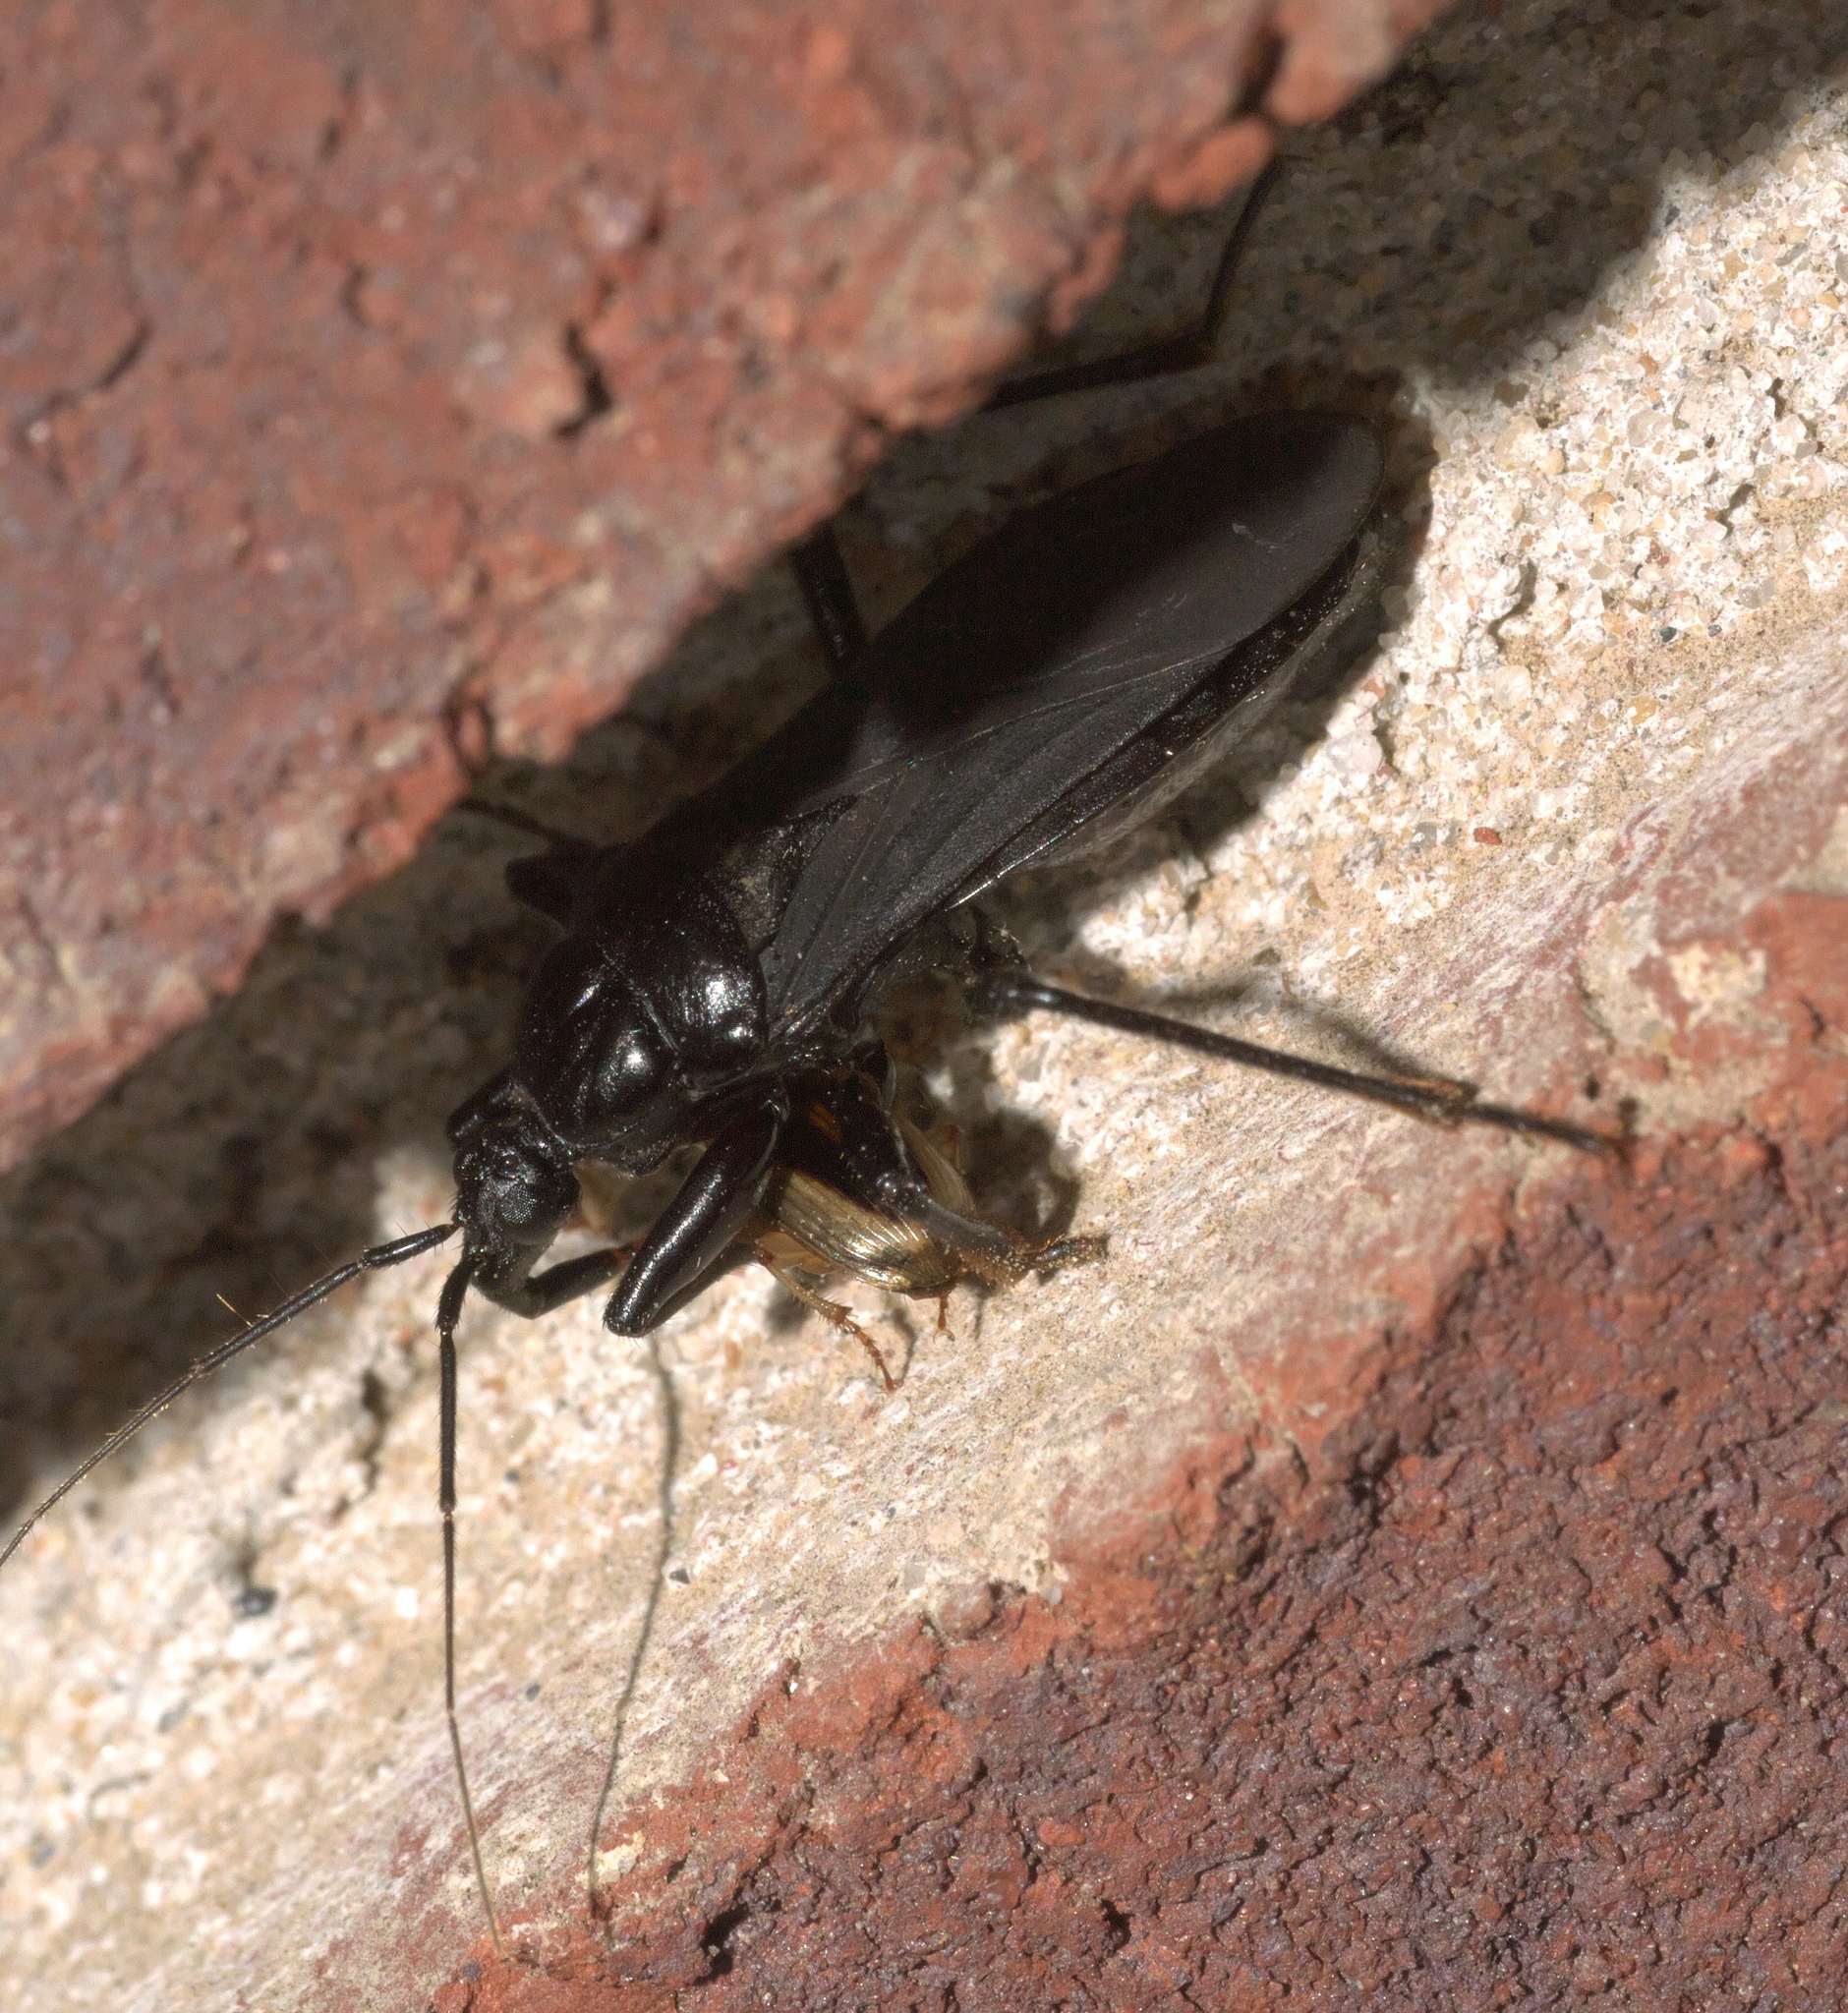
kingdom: Animalia
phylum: Arthropoda
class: Insecta
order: Hemiptera
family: Reduviidae
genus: Melanolestes
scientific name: Melanolestes picipes
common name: Assassin bug
